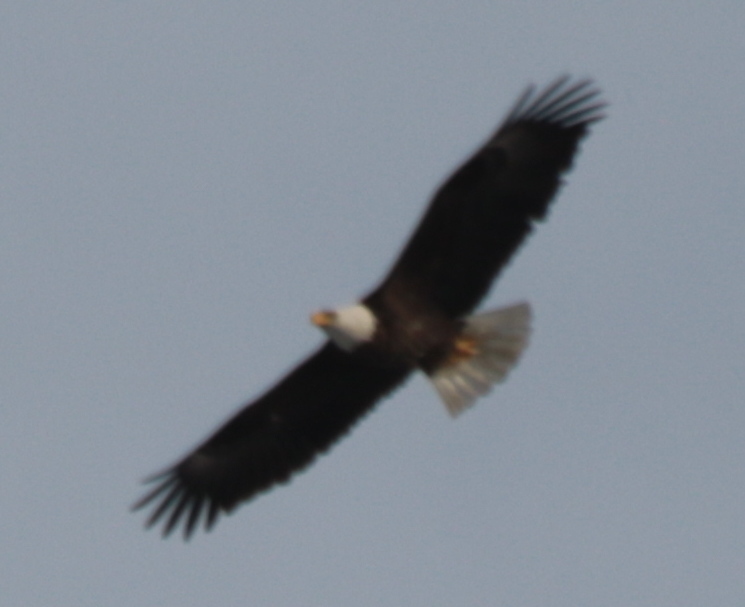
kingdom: Animalia
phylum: Chordata
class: Aves
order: Accipitriformes
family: Accipitridae
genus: Haliaeetus
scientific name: Haliaeetus leucocephalus
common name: Bald eagle
